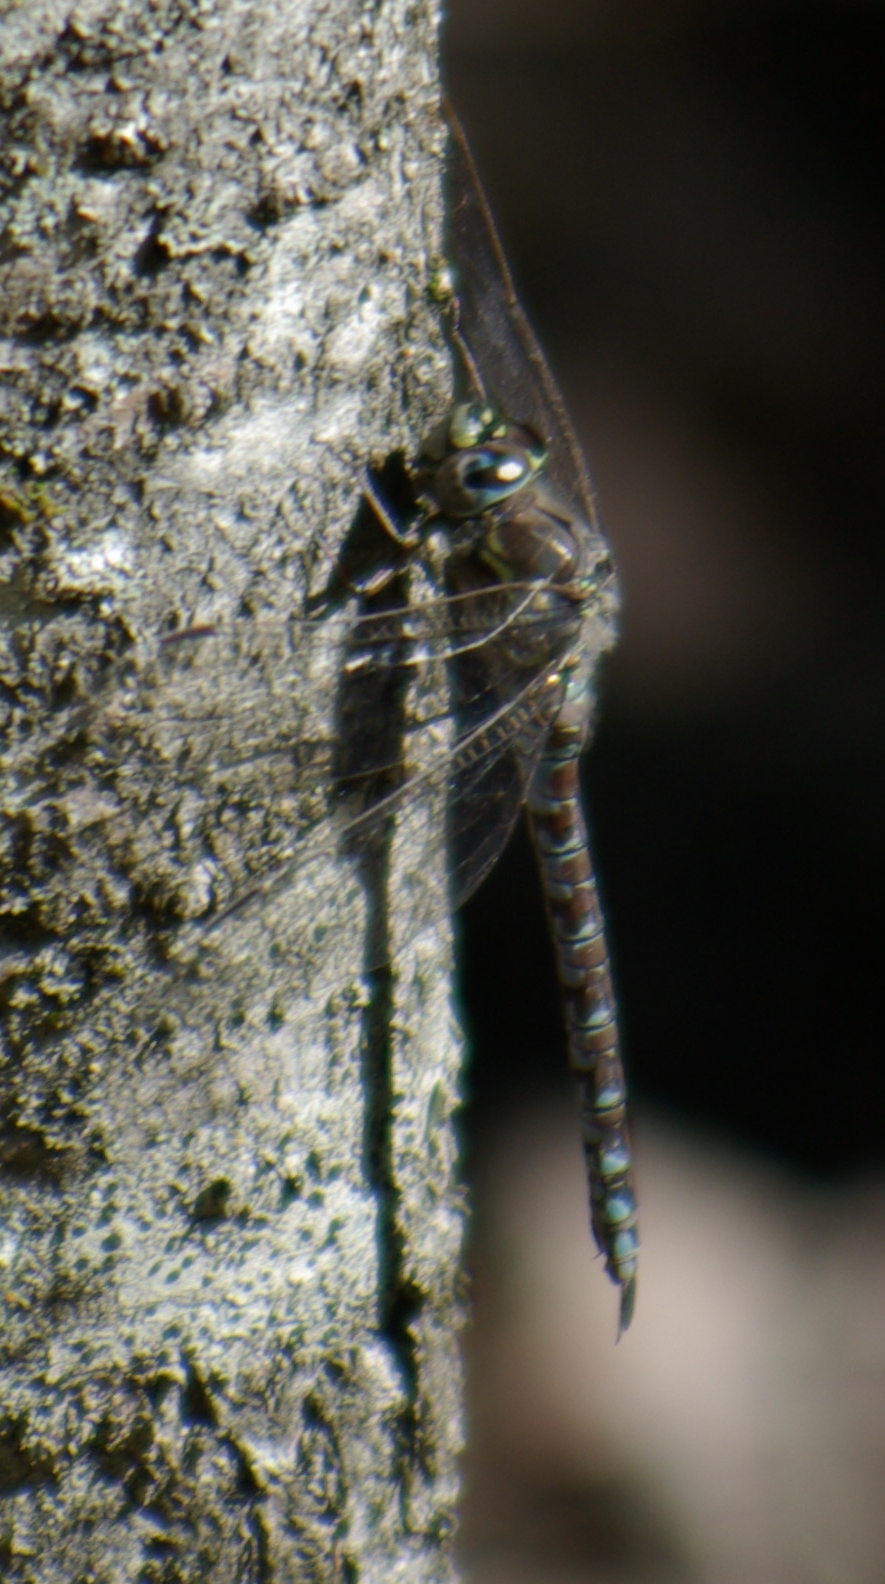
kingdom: Animalia
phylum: Arthropoda
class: Insecta
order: Odonata
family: Aeshnidae
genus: Aeshna
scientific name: Aeshna sitchensis
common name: Zigzag darner
